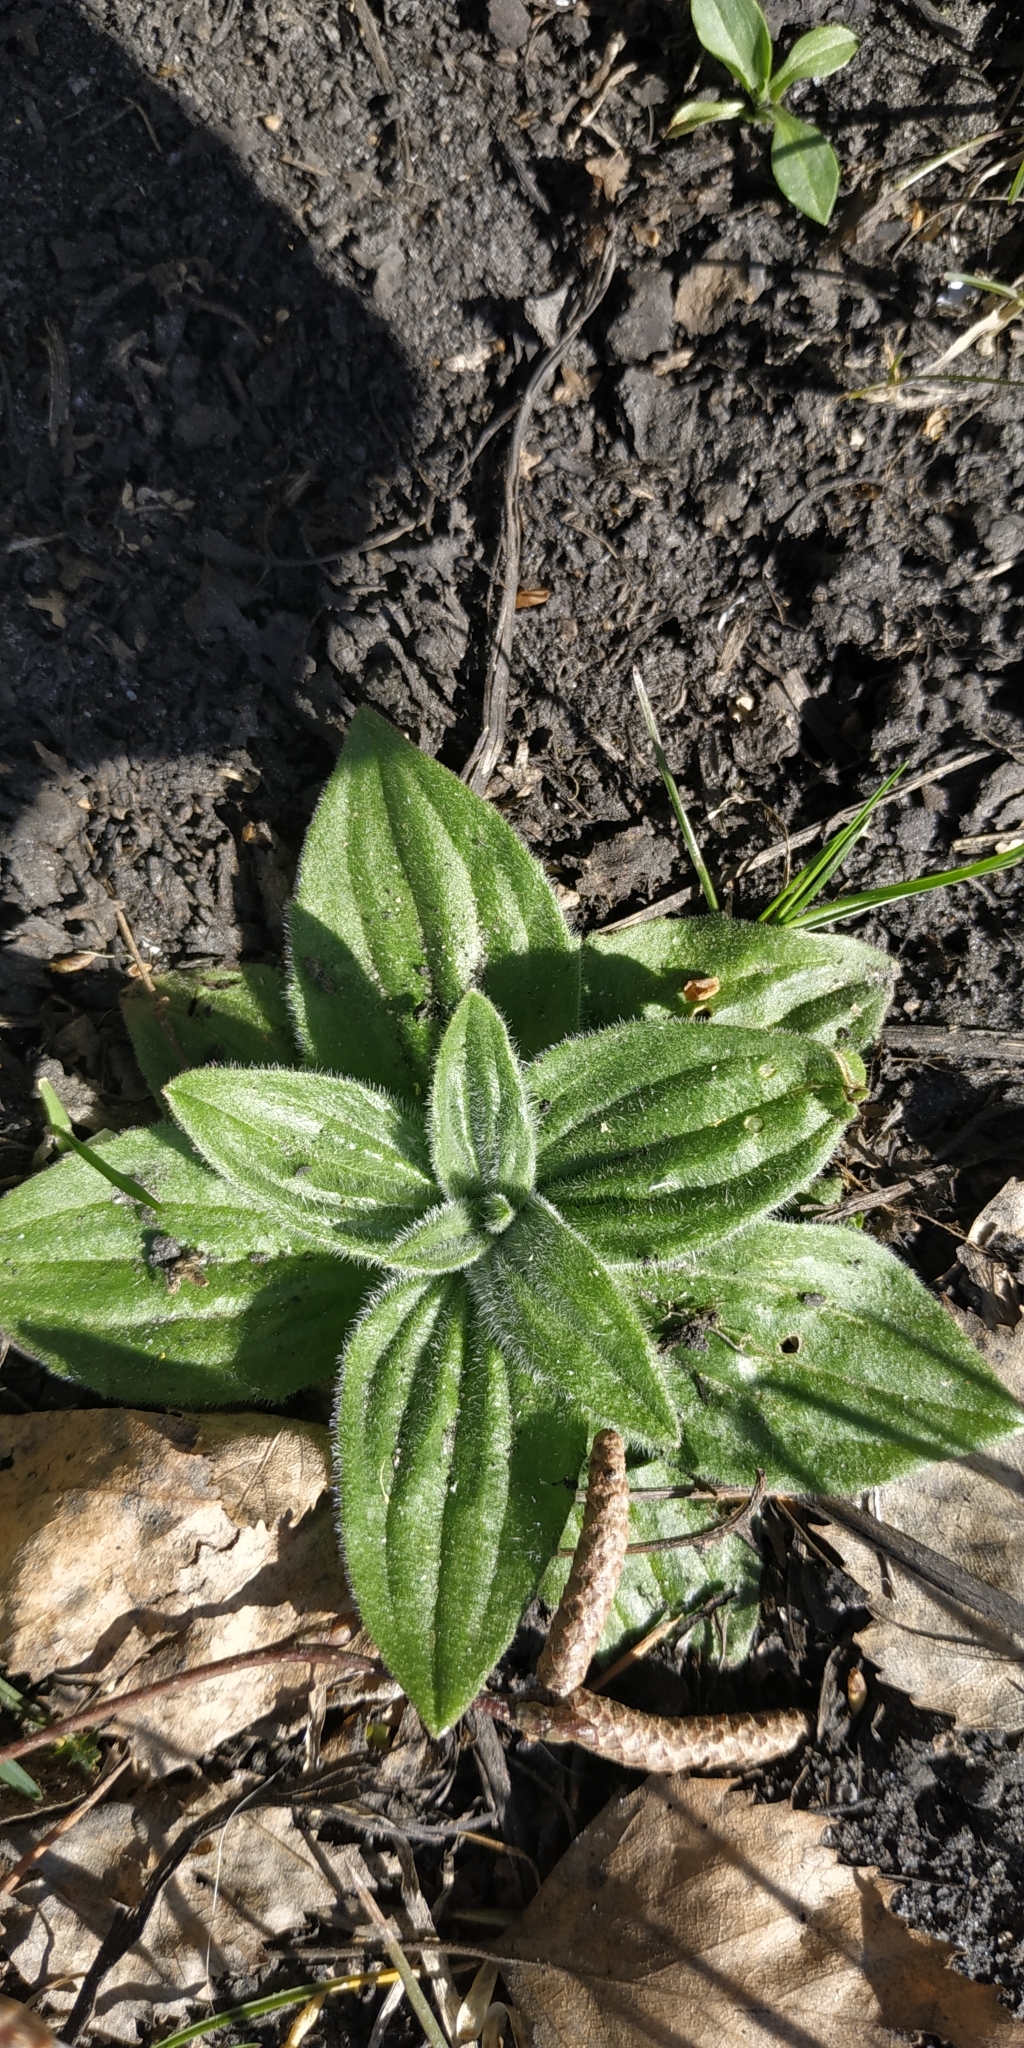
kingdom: Plantae
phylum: Tracheophyta
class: Magnoliopsida
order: Lamiales
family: Plantaginaceae
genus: Plantago
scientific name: Plantago media
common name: Hoary plantain
